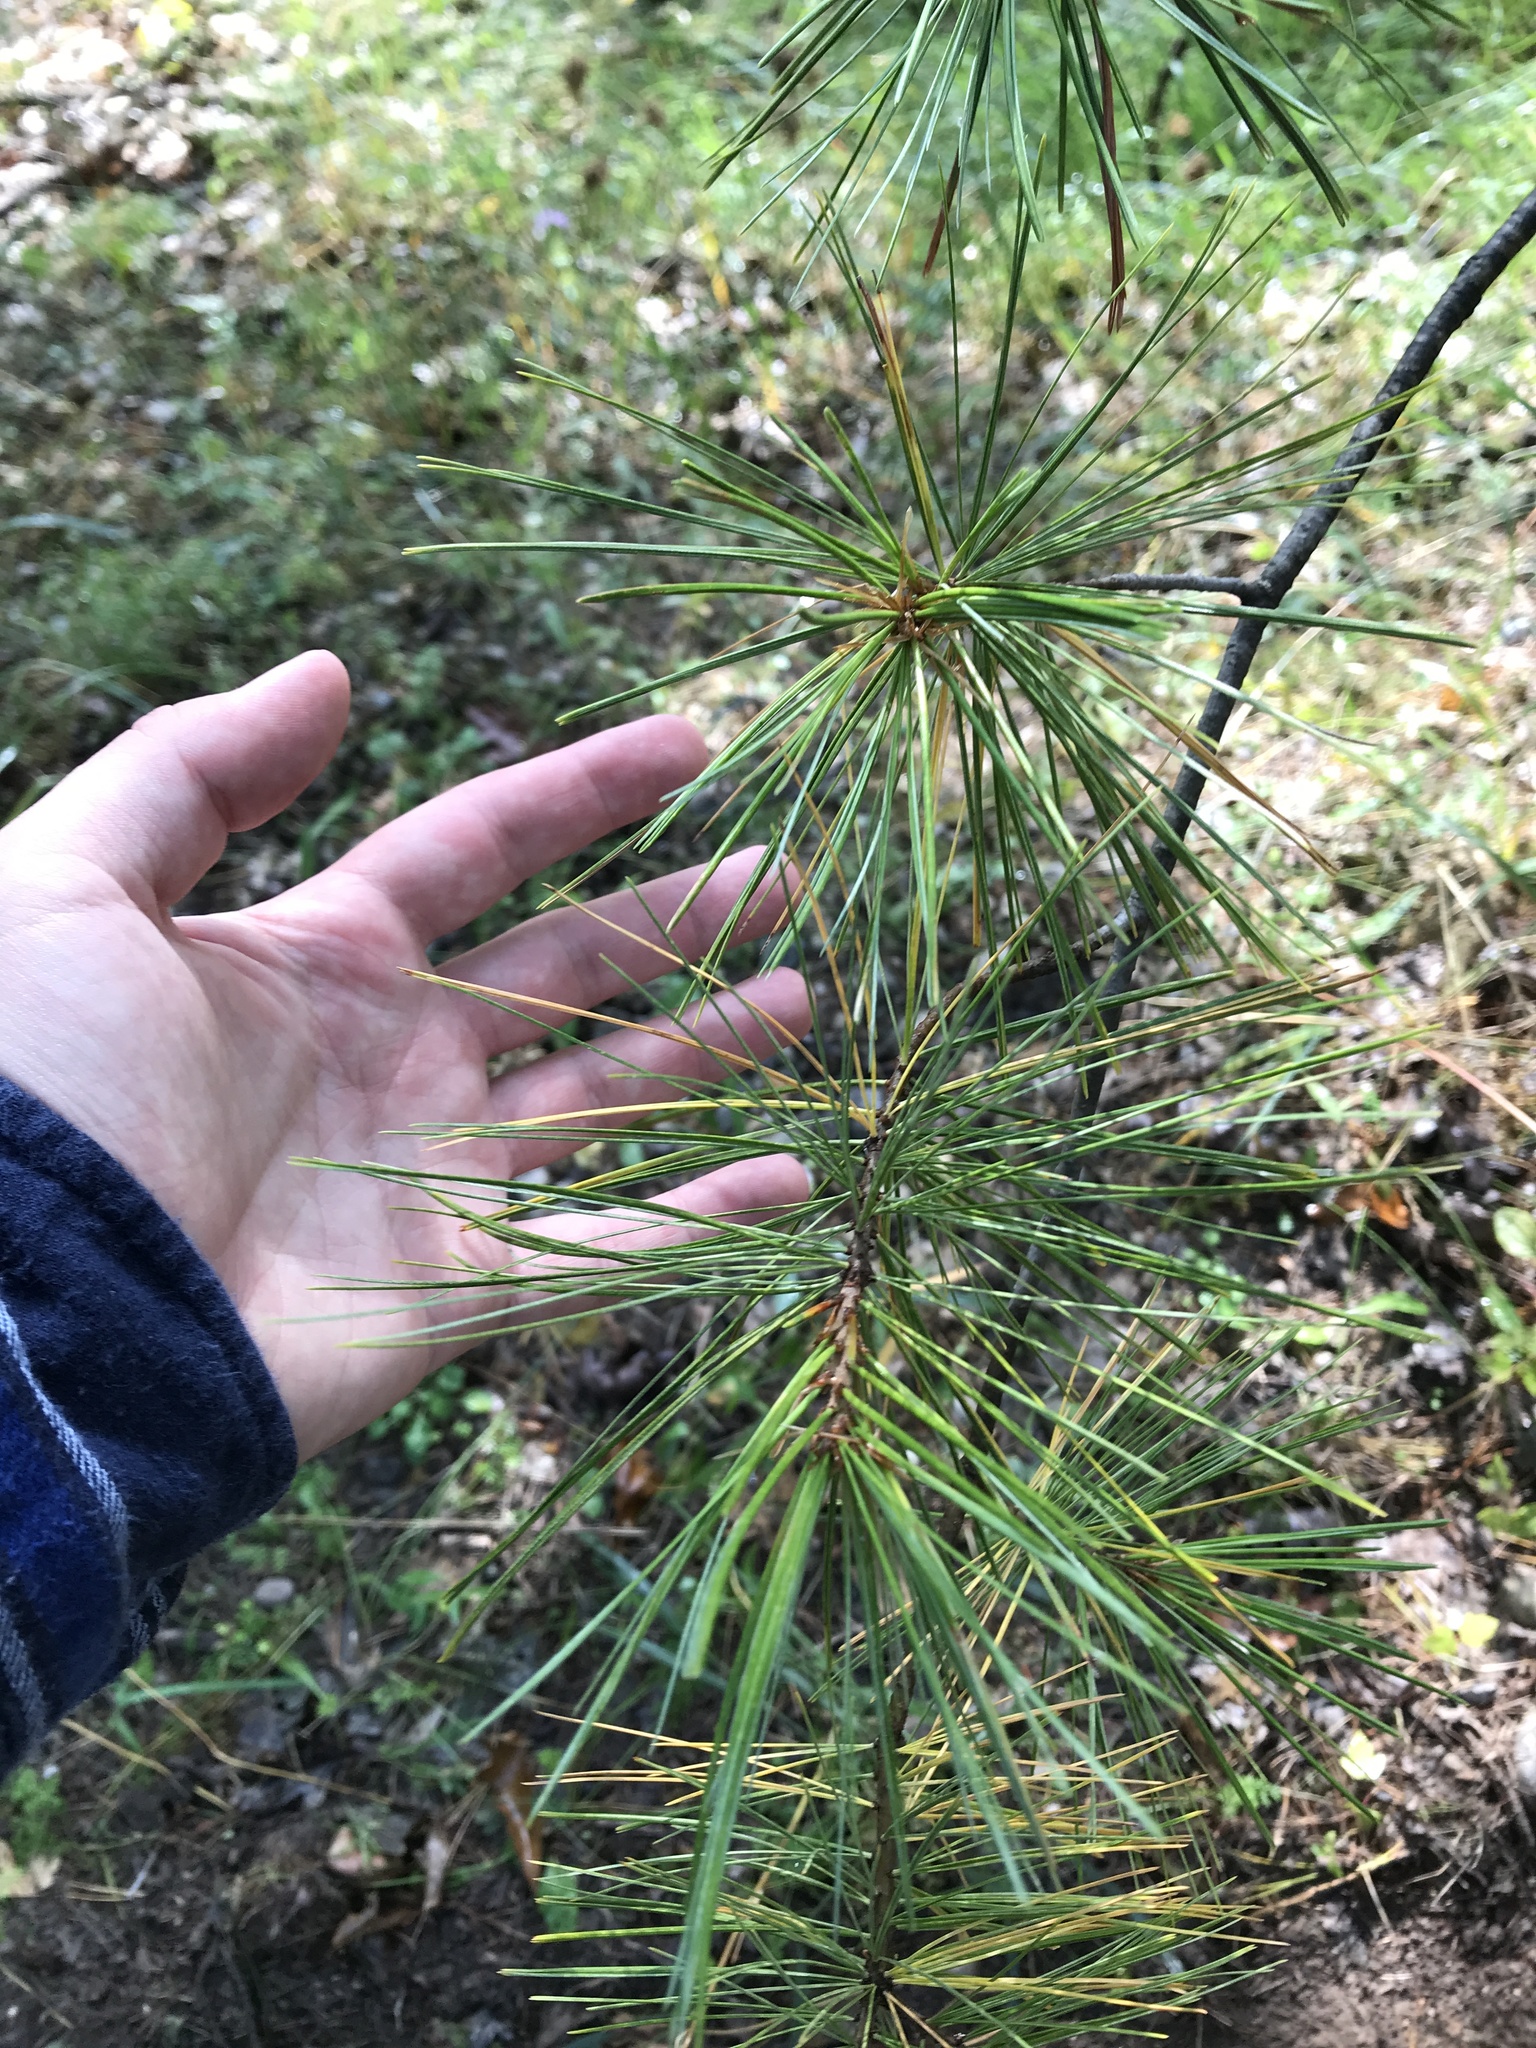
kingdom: Plantae
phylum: Tracheophyta
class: Pinopsida
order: Pinales
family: Pinaceae
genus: Pinus
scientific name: Pinus strobus
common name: Weymouth pine
